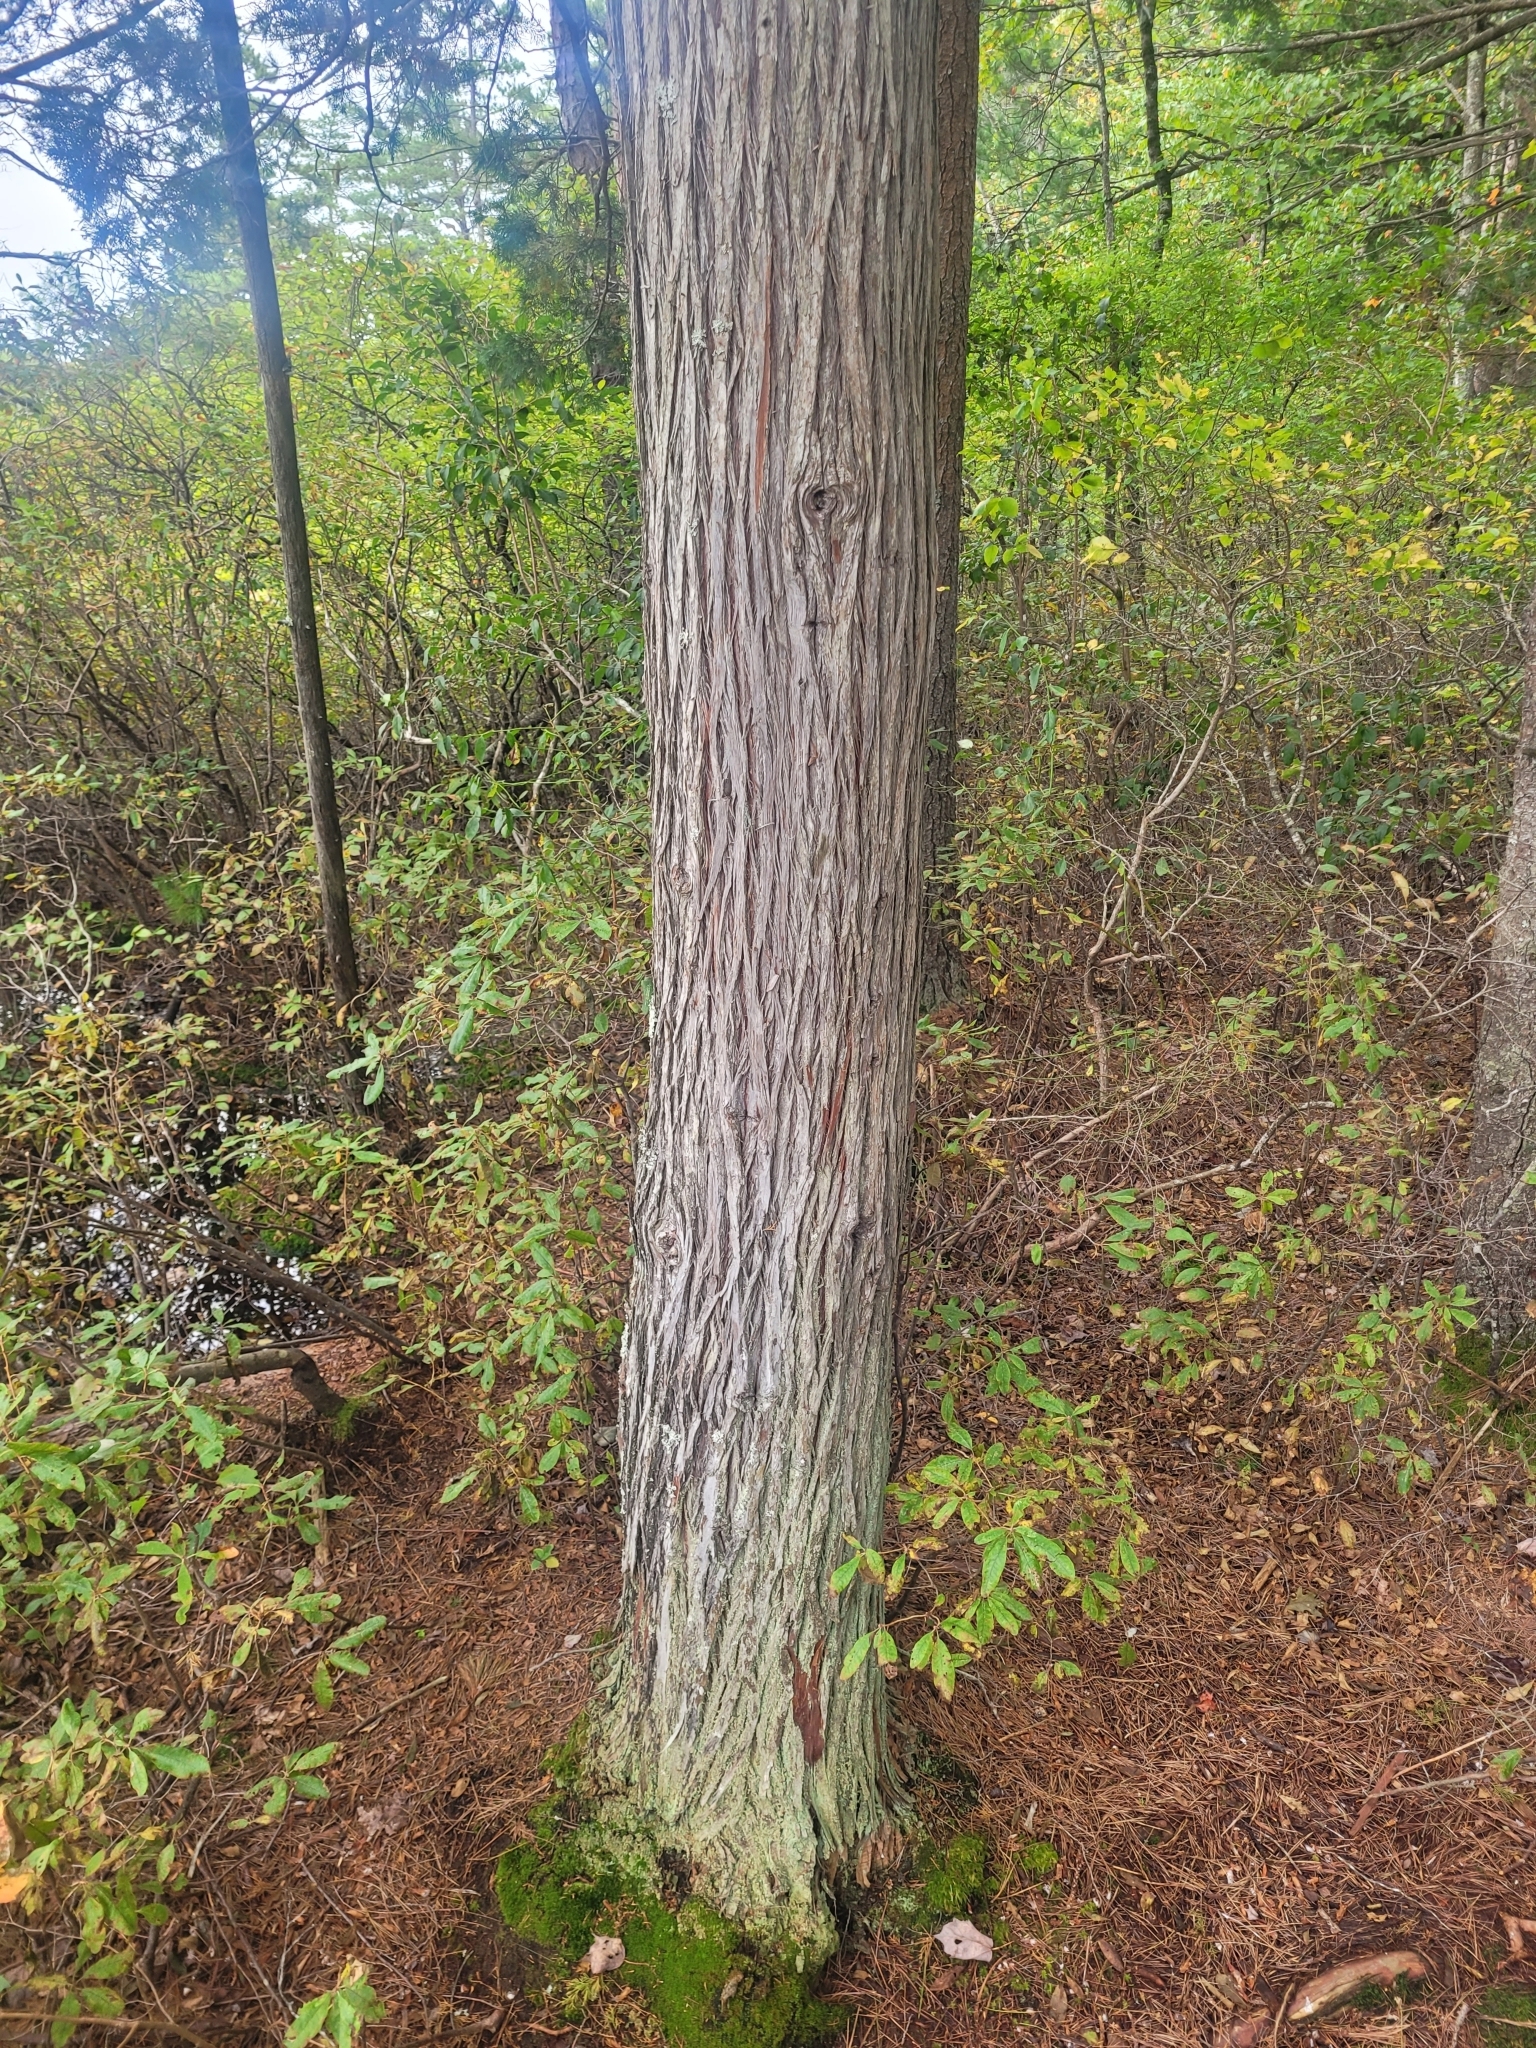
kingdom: Plantae
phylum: Tracheophyta
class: Pinopsida
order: Pinales
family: Cupressaceae
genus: Chamaecyparis
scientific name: Chamaecyparis thyoides
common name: Atlantic white cedar
